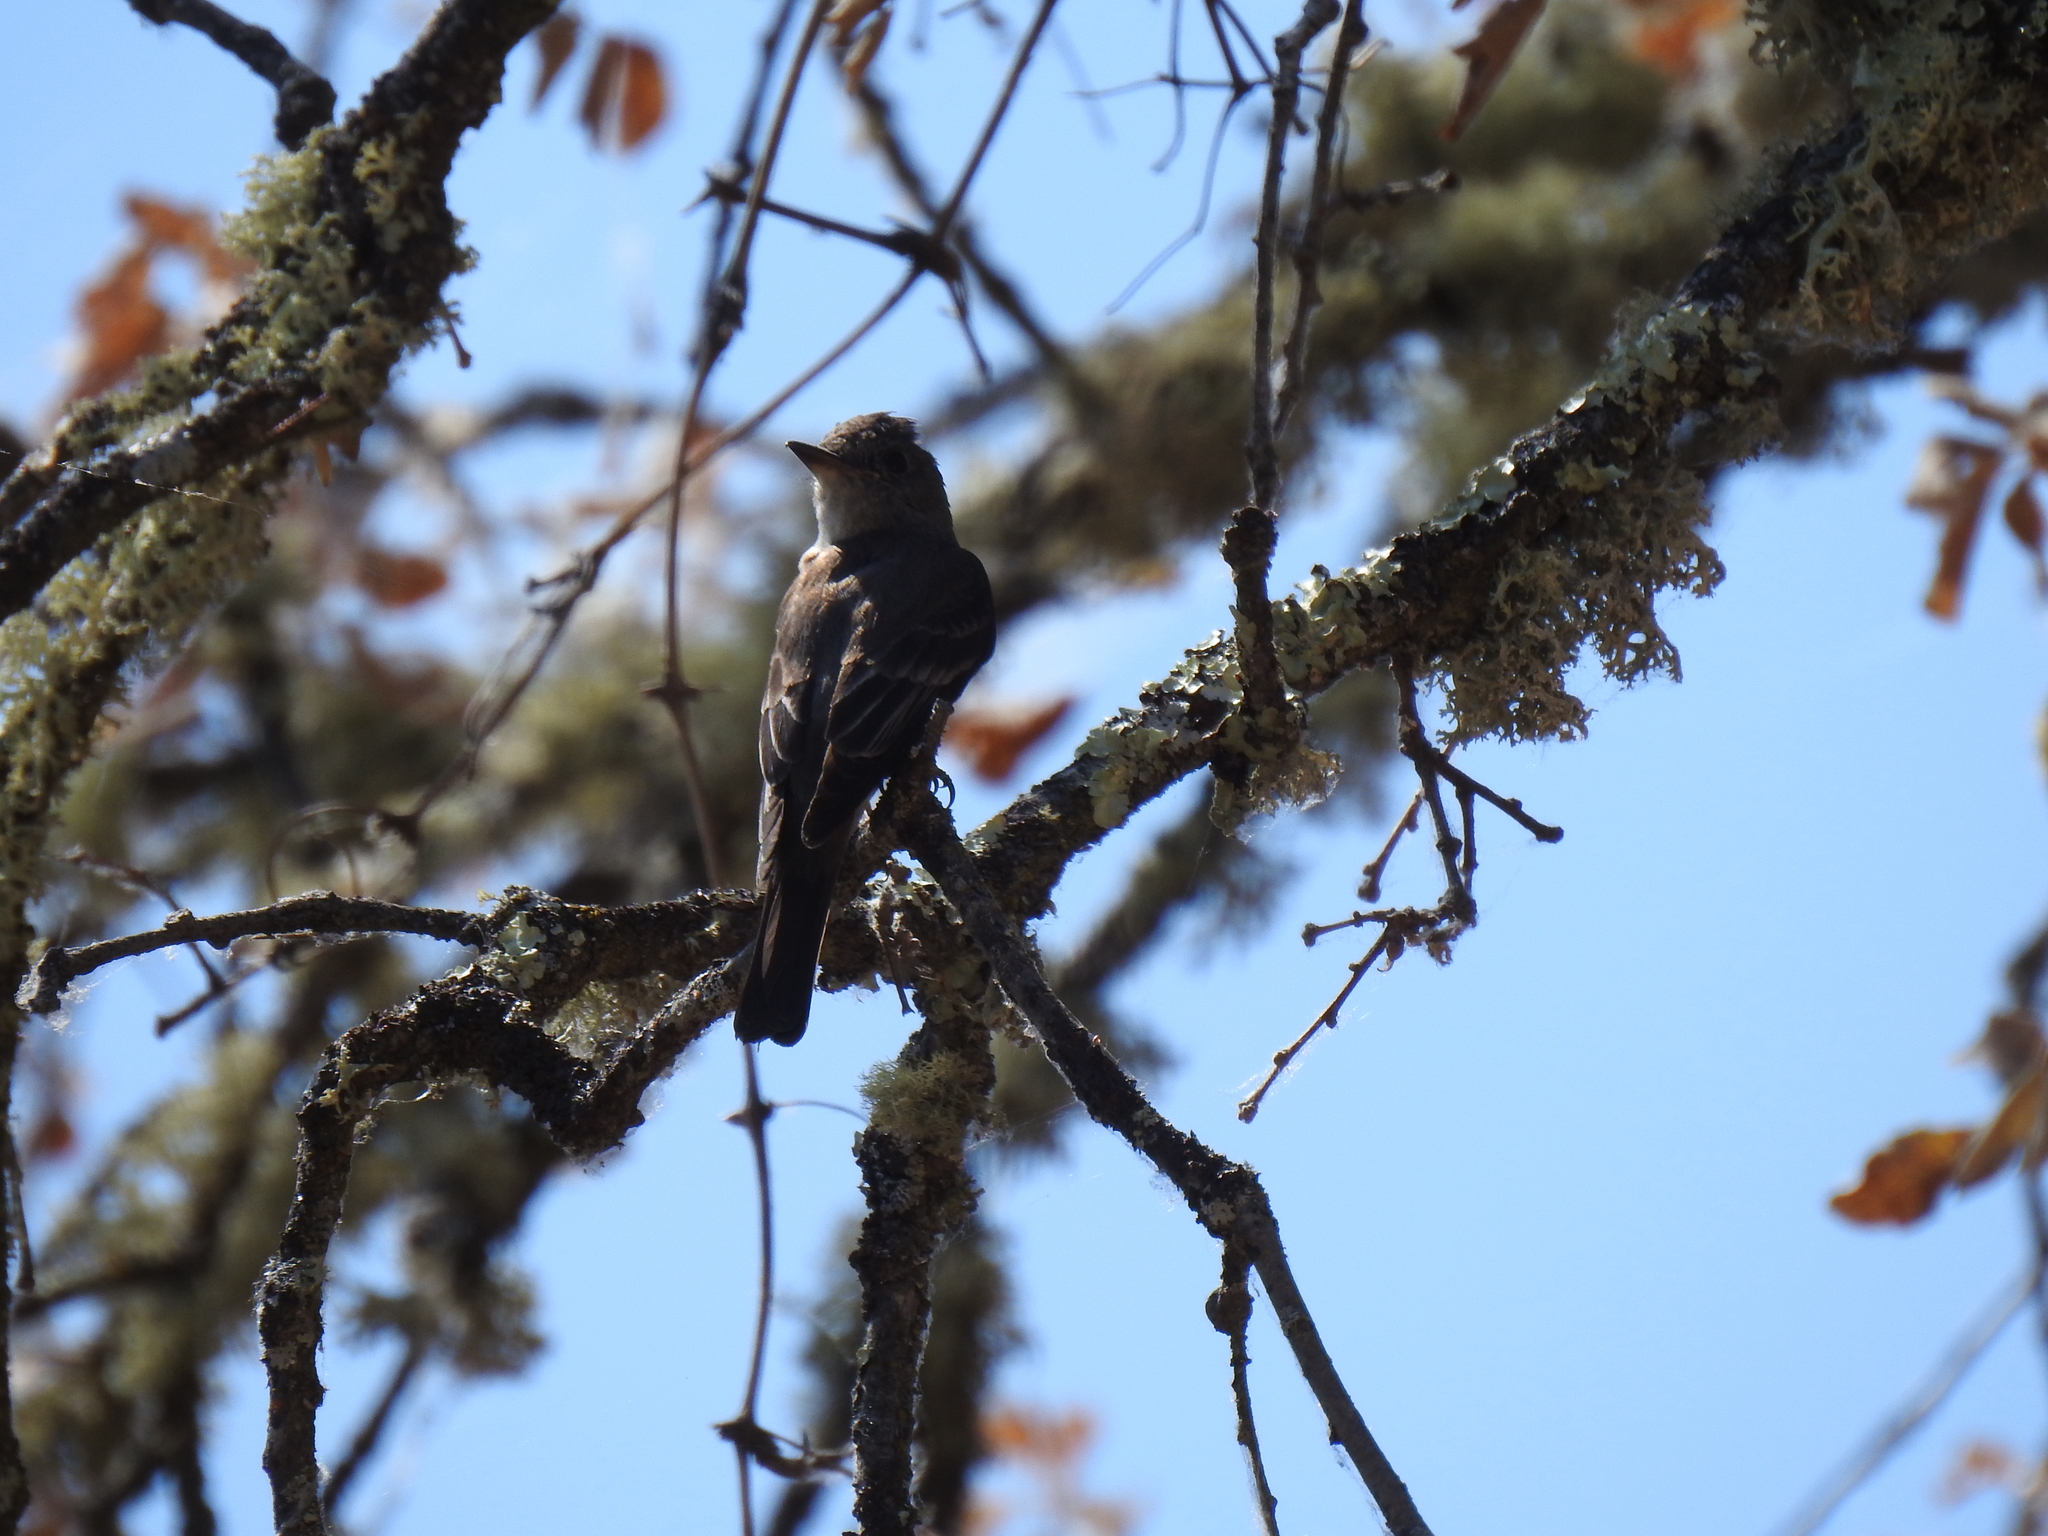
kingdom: Animalia
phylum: Chordata
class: Aves
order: Passeriformes
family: Tyrannidae
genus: Contopus
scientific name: Contopus sordidulus
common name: Western wood-pewee
